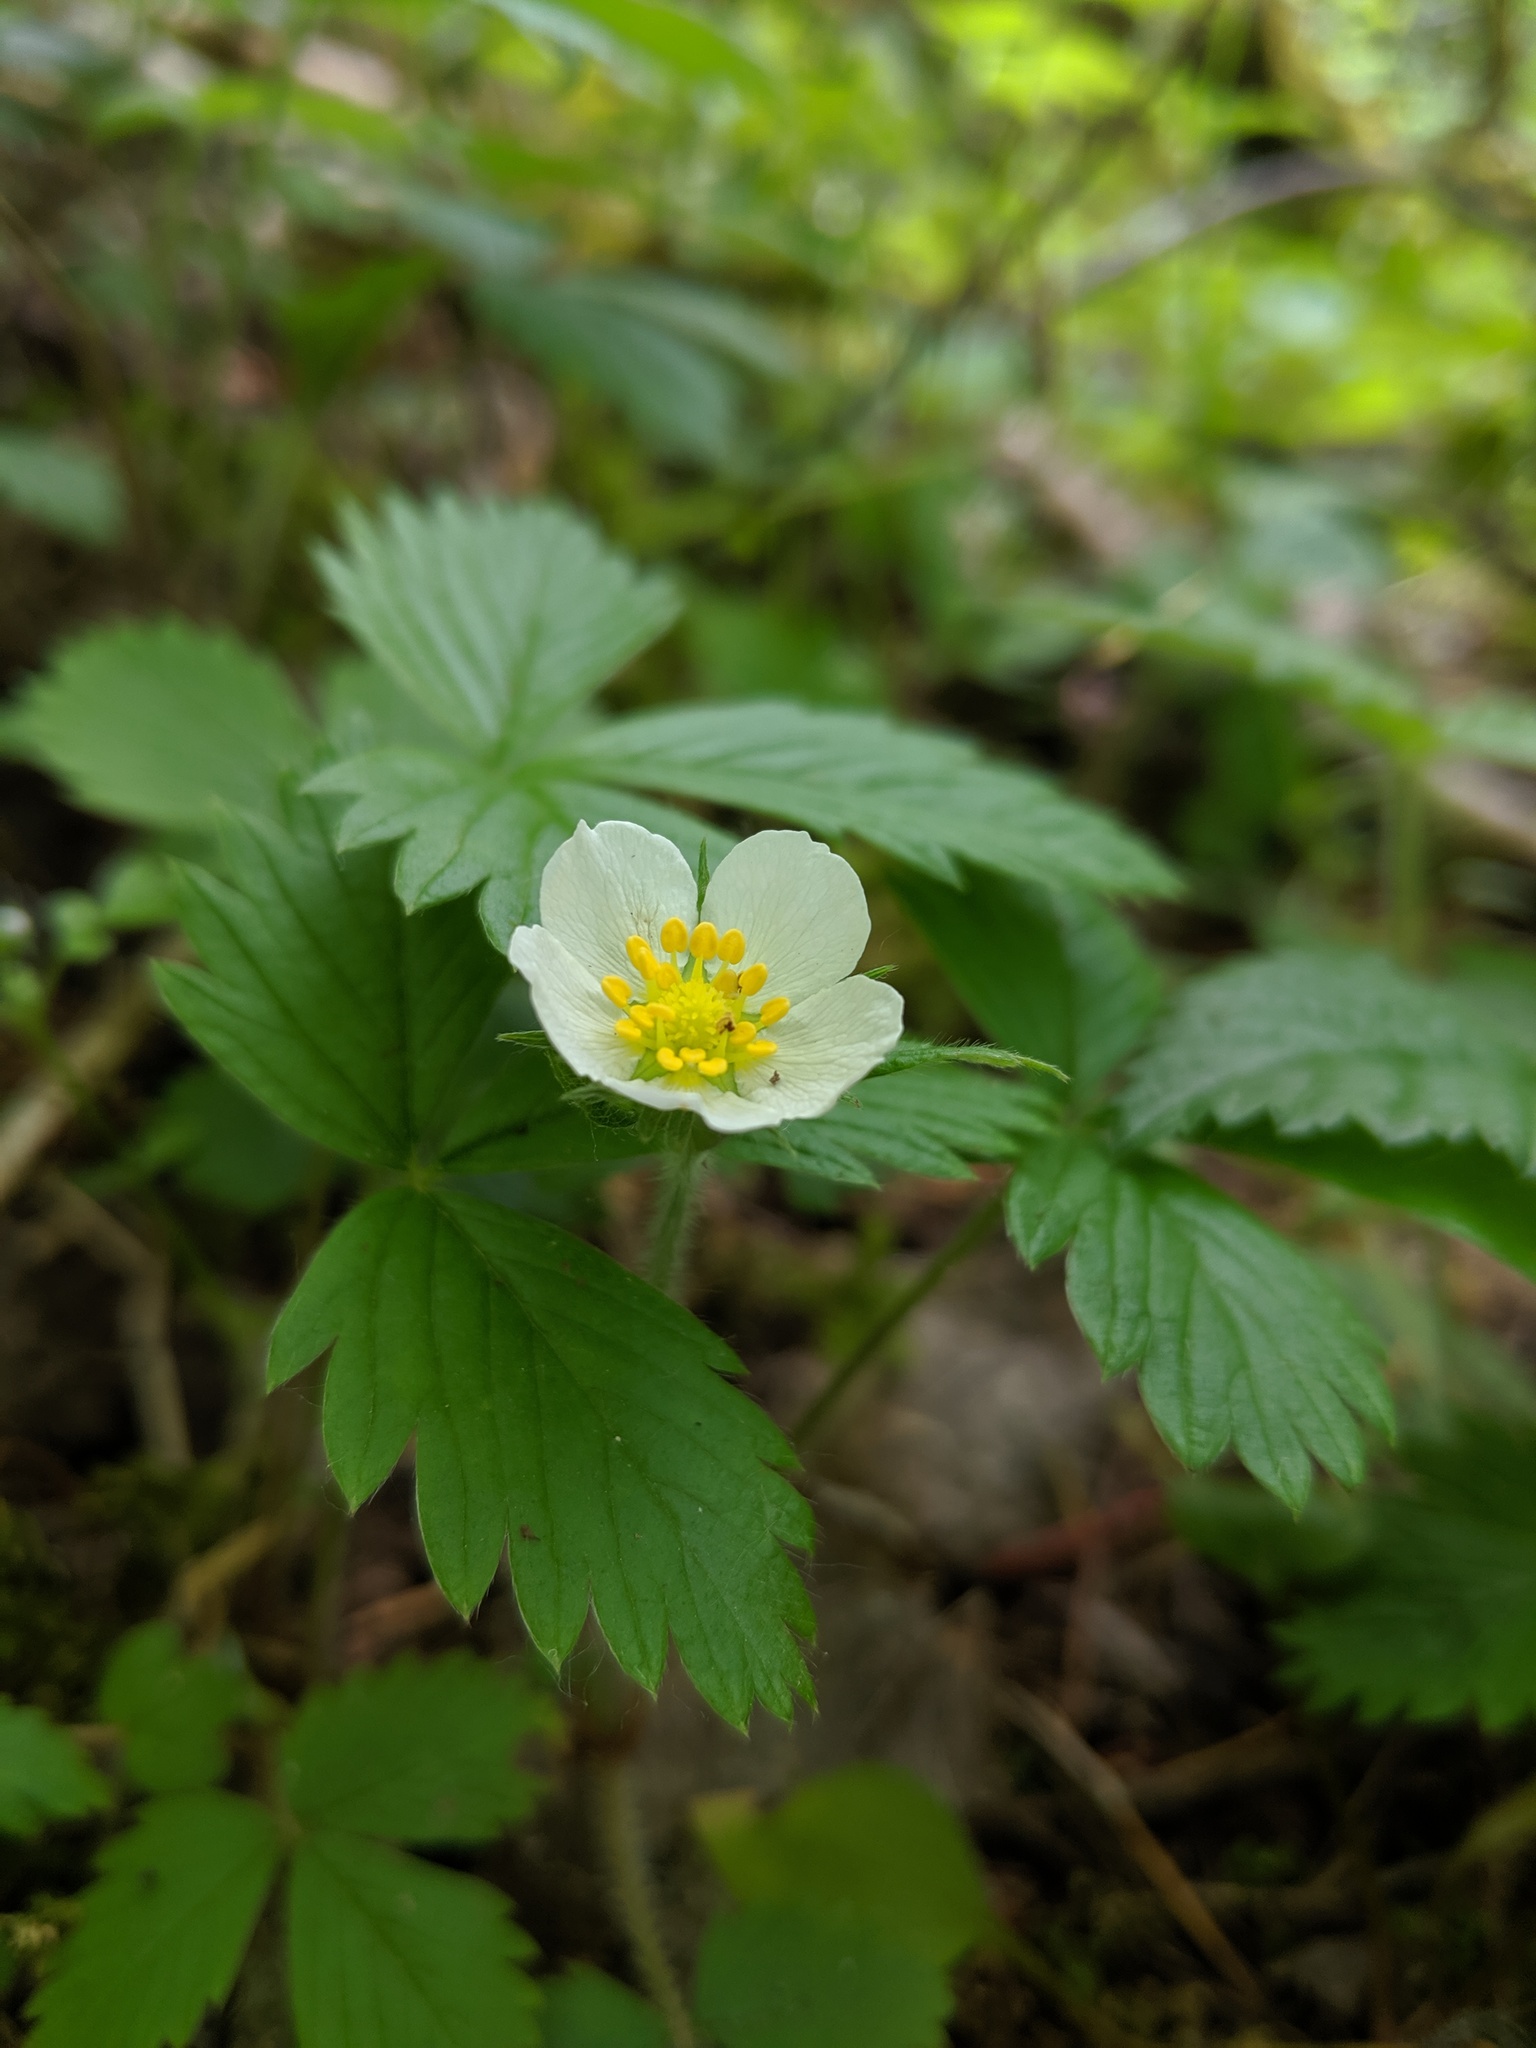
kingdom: Plantae
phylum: Tracheophyta
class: Magnoliopsida
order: Rosales
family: Rosaceae
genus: Fragaria
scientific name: Fragaria vesca
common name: Wild strawberry
